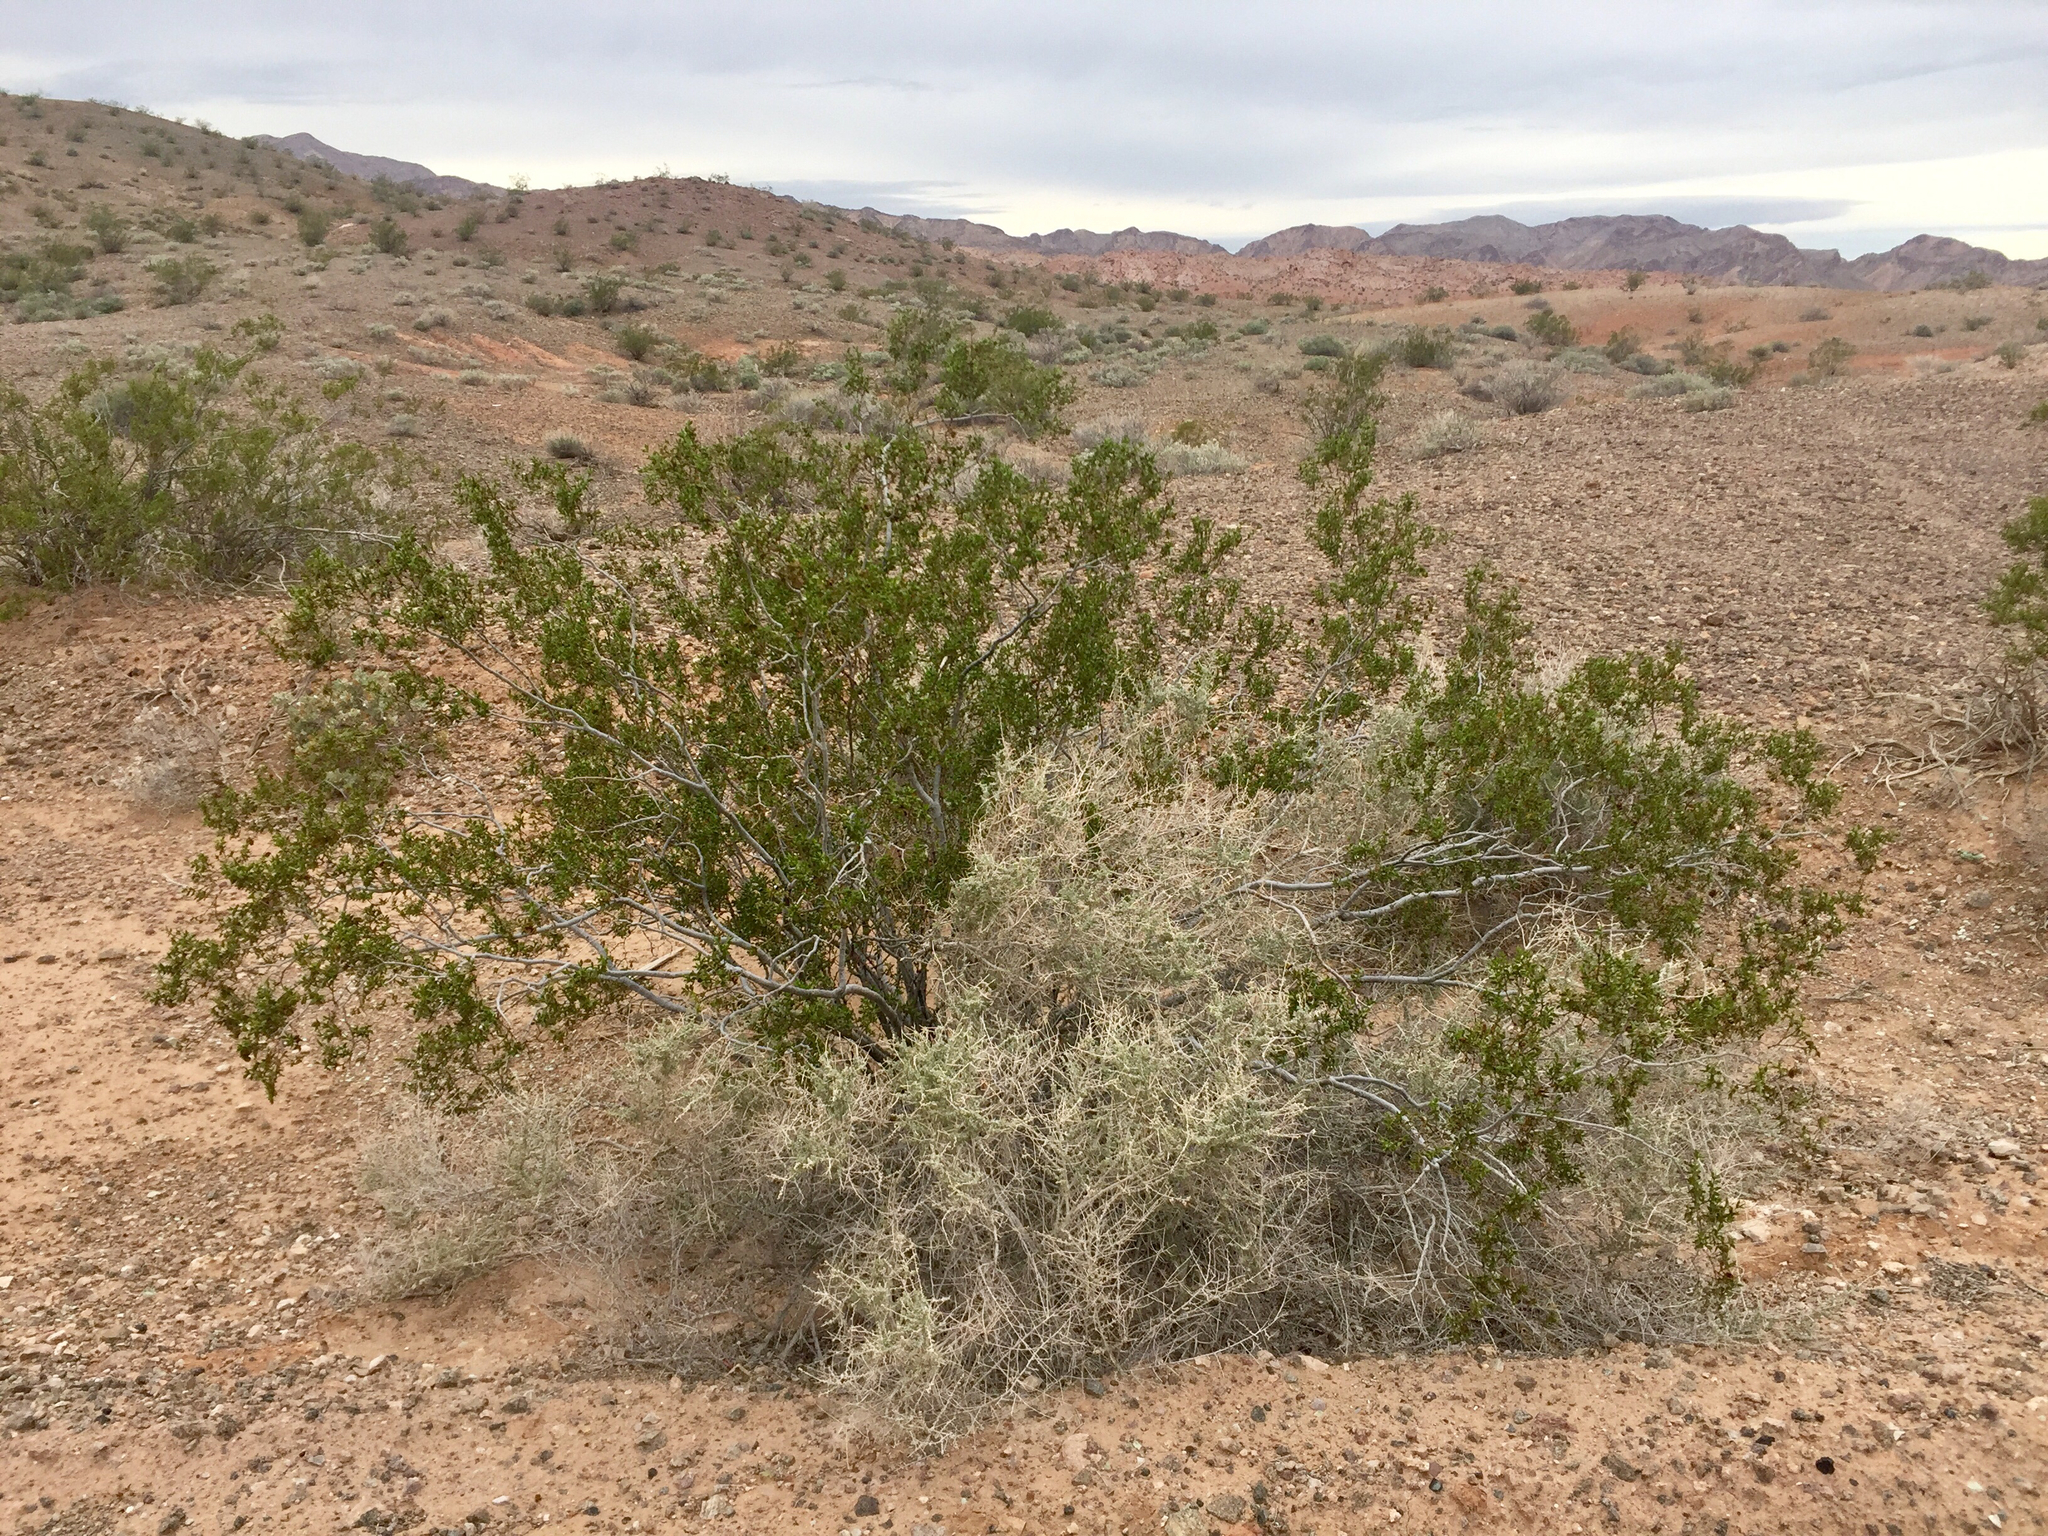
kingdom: Plantae
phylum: Tracheophyta
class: Magnoliopsida
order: Zygophyllales
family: Zygophyllaceae
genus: Larrea
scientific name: Larrea tridentata
